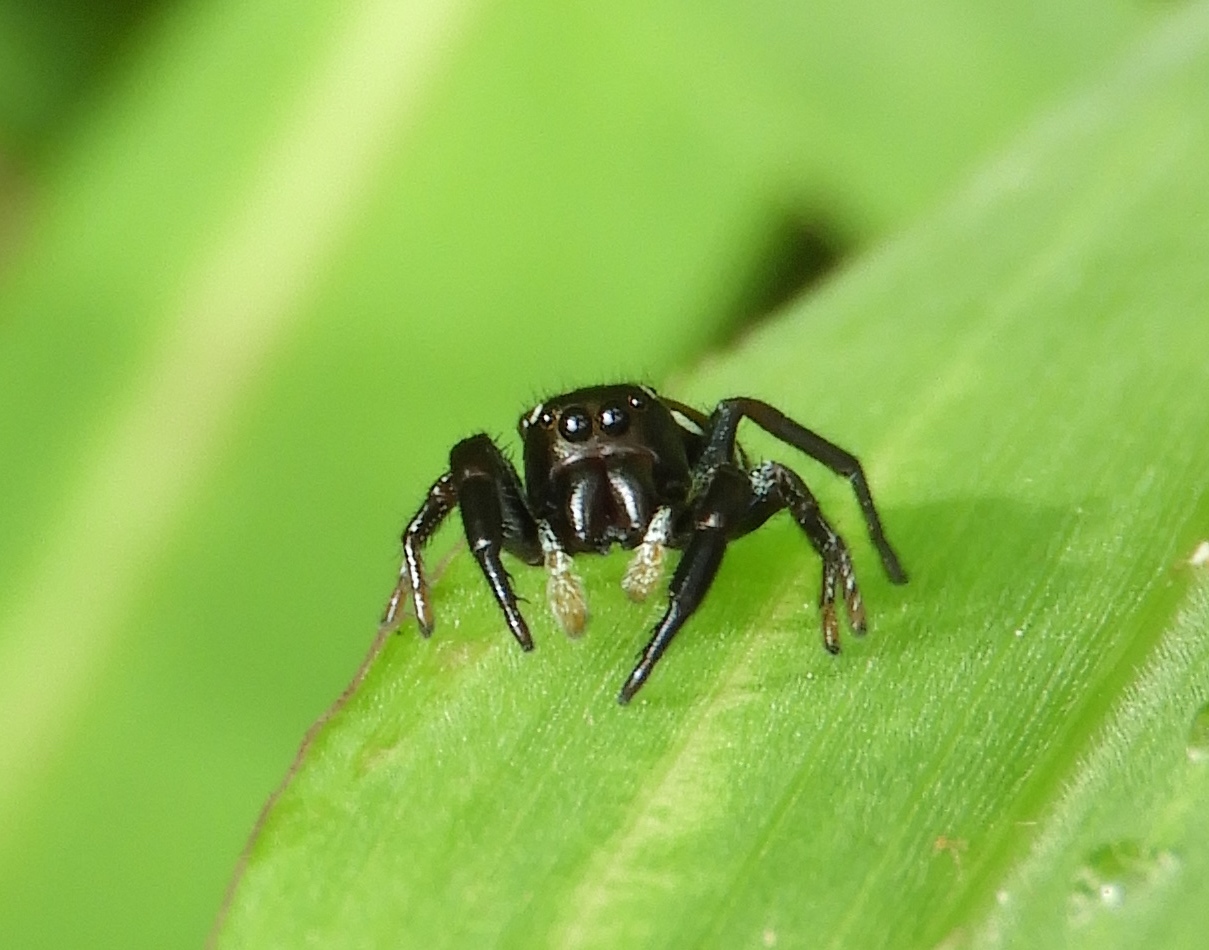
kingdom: Animalia
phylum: Arthropoda
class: Arachnida
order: Araneae
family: Salticidae
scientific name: Salticidae
